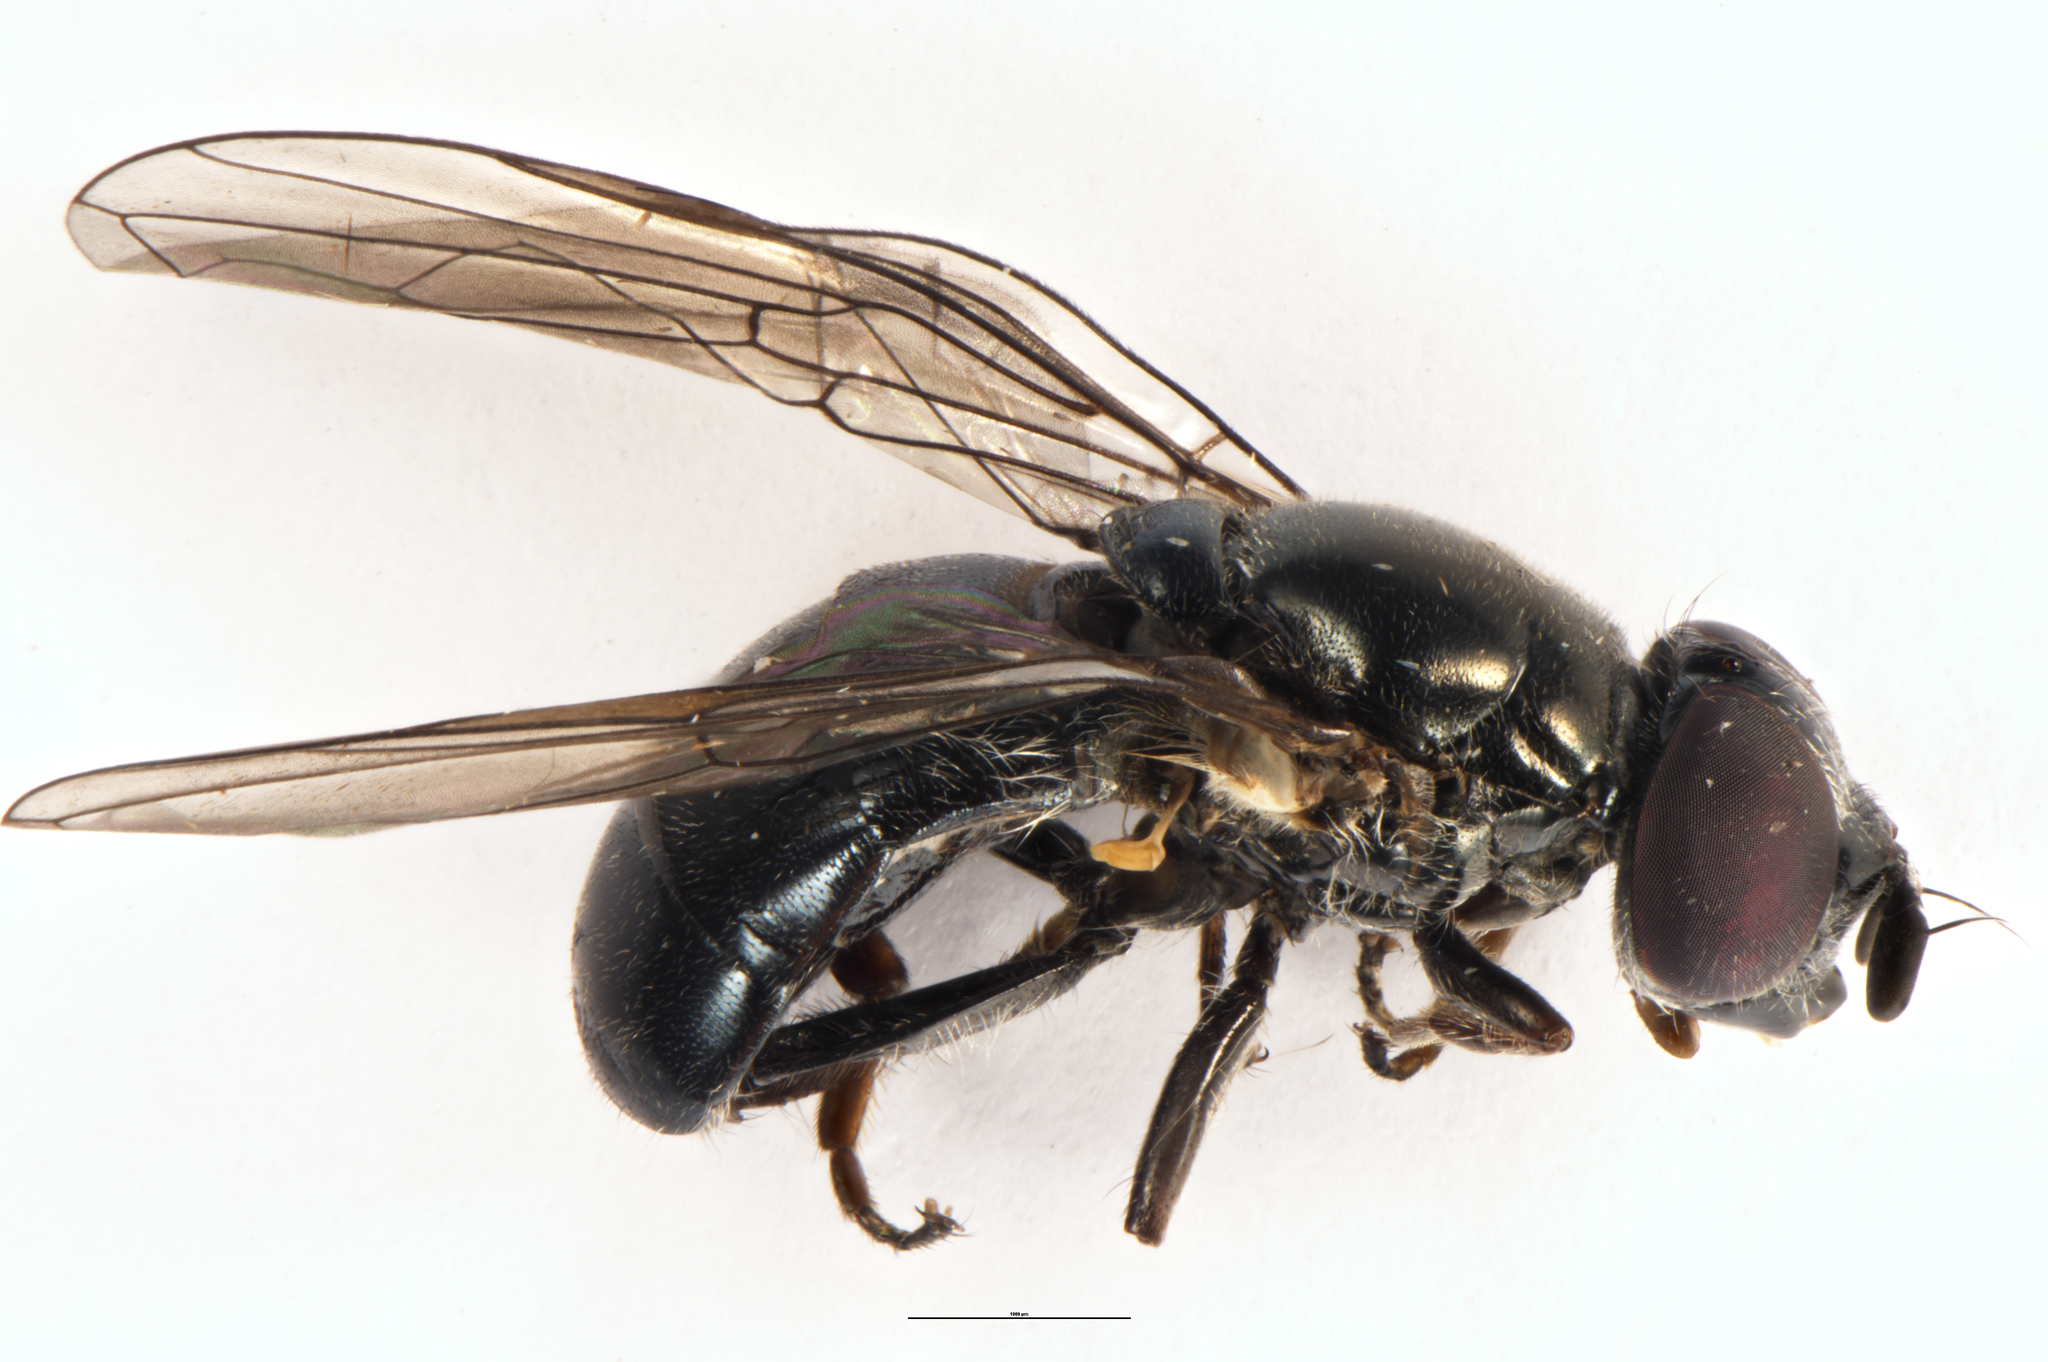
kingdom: Animalia
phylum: Arthropoda
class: Insecta
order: Diptera
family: Syrphidae
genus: Psilota
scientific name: Psilota decessum
